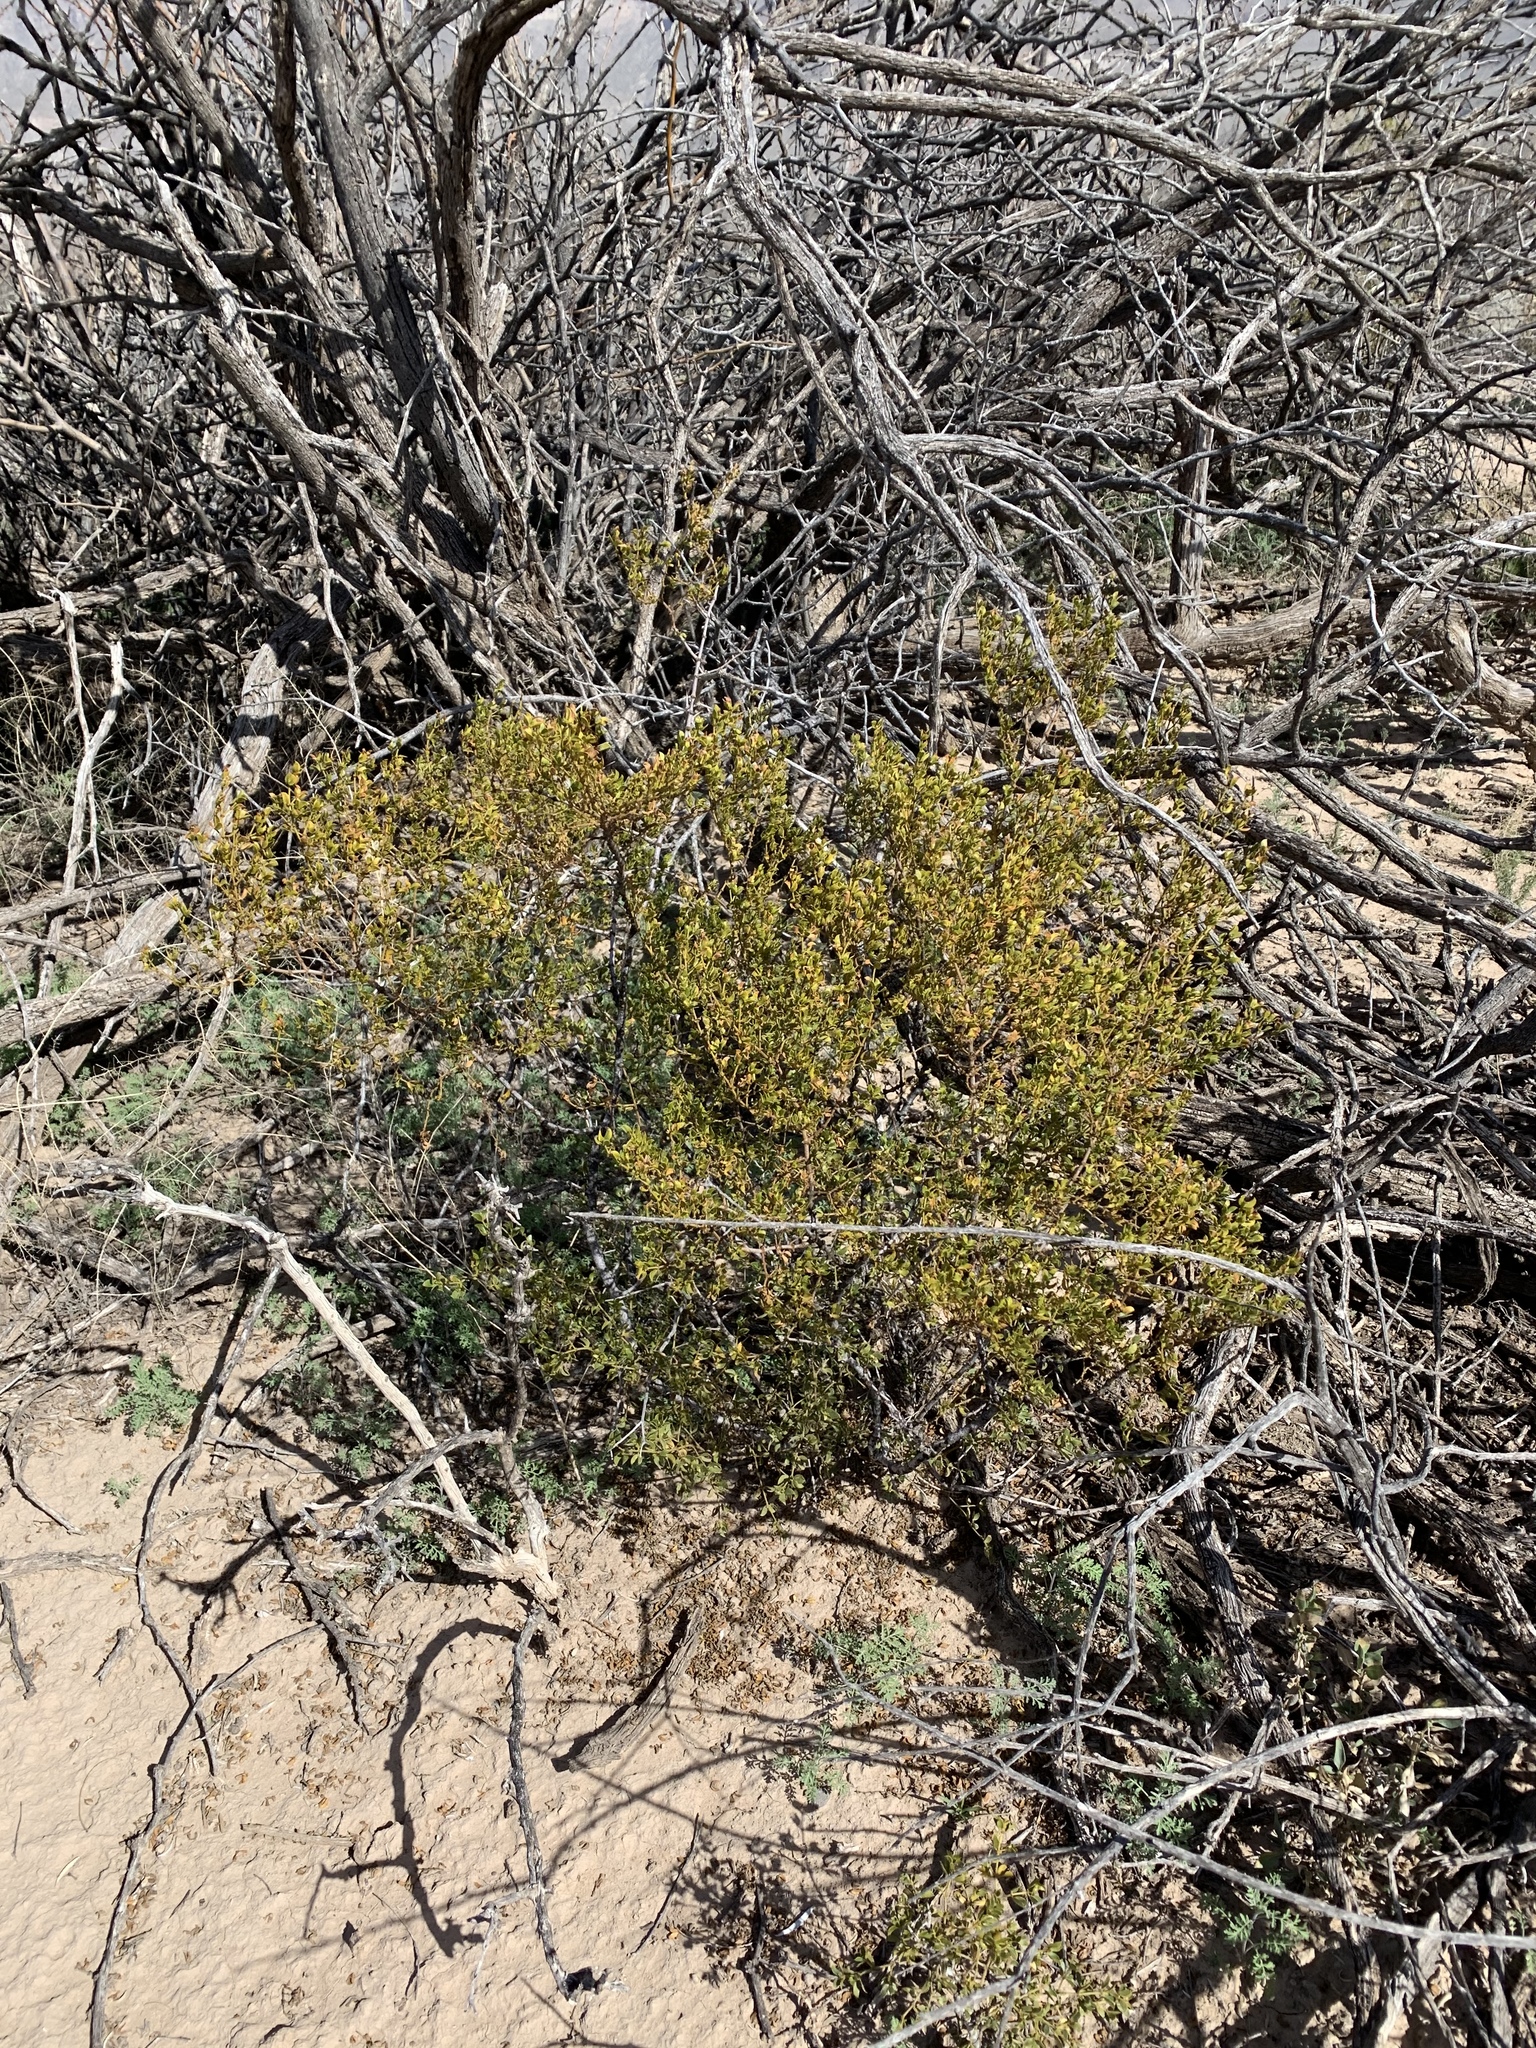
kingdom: Plantae
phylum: Tracheophyta
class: Magnoliopsida
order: Zygophyllales
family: Zygophyllaceae
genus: Larrea
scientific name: Larrea tridentata
